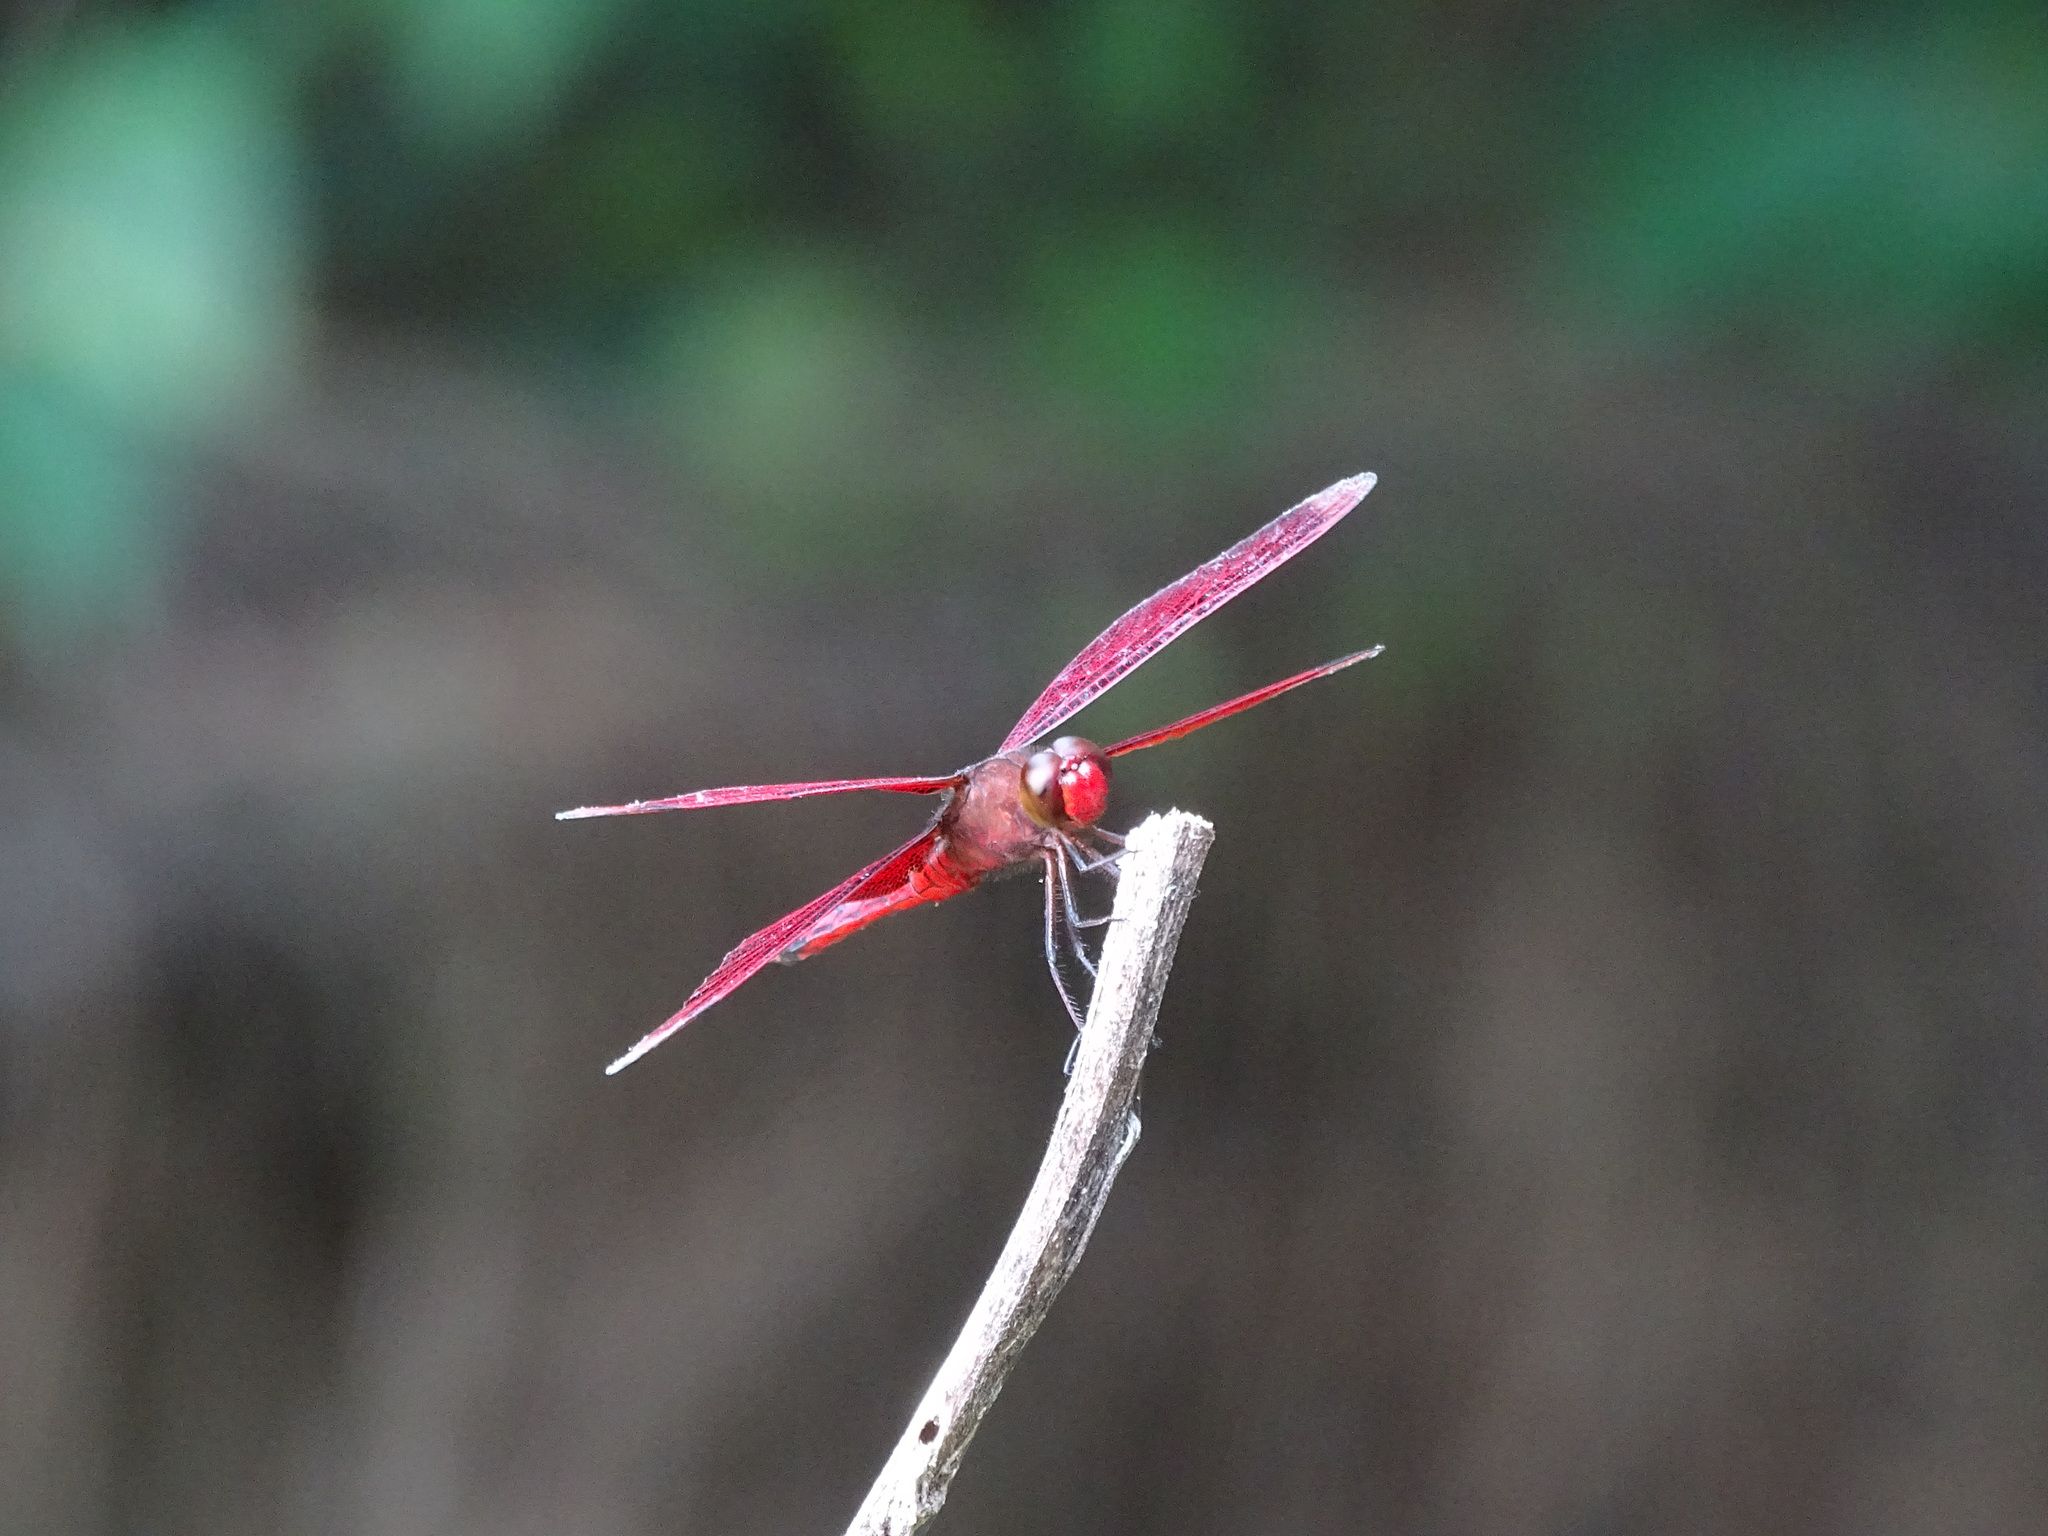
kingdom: Animalia
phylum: Arthropoda
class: Insecta
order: Odonata
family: Libellulidae
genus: Neurothemis
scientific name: Neurothemis taiwanensis
